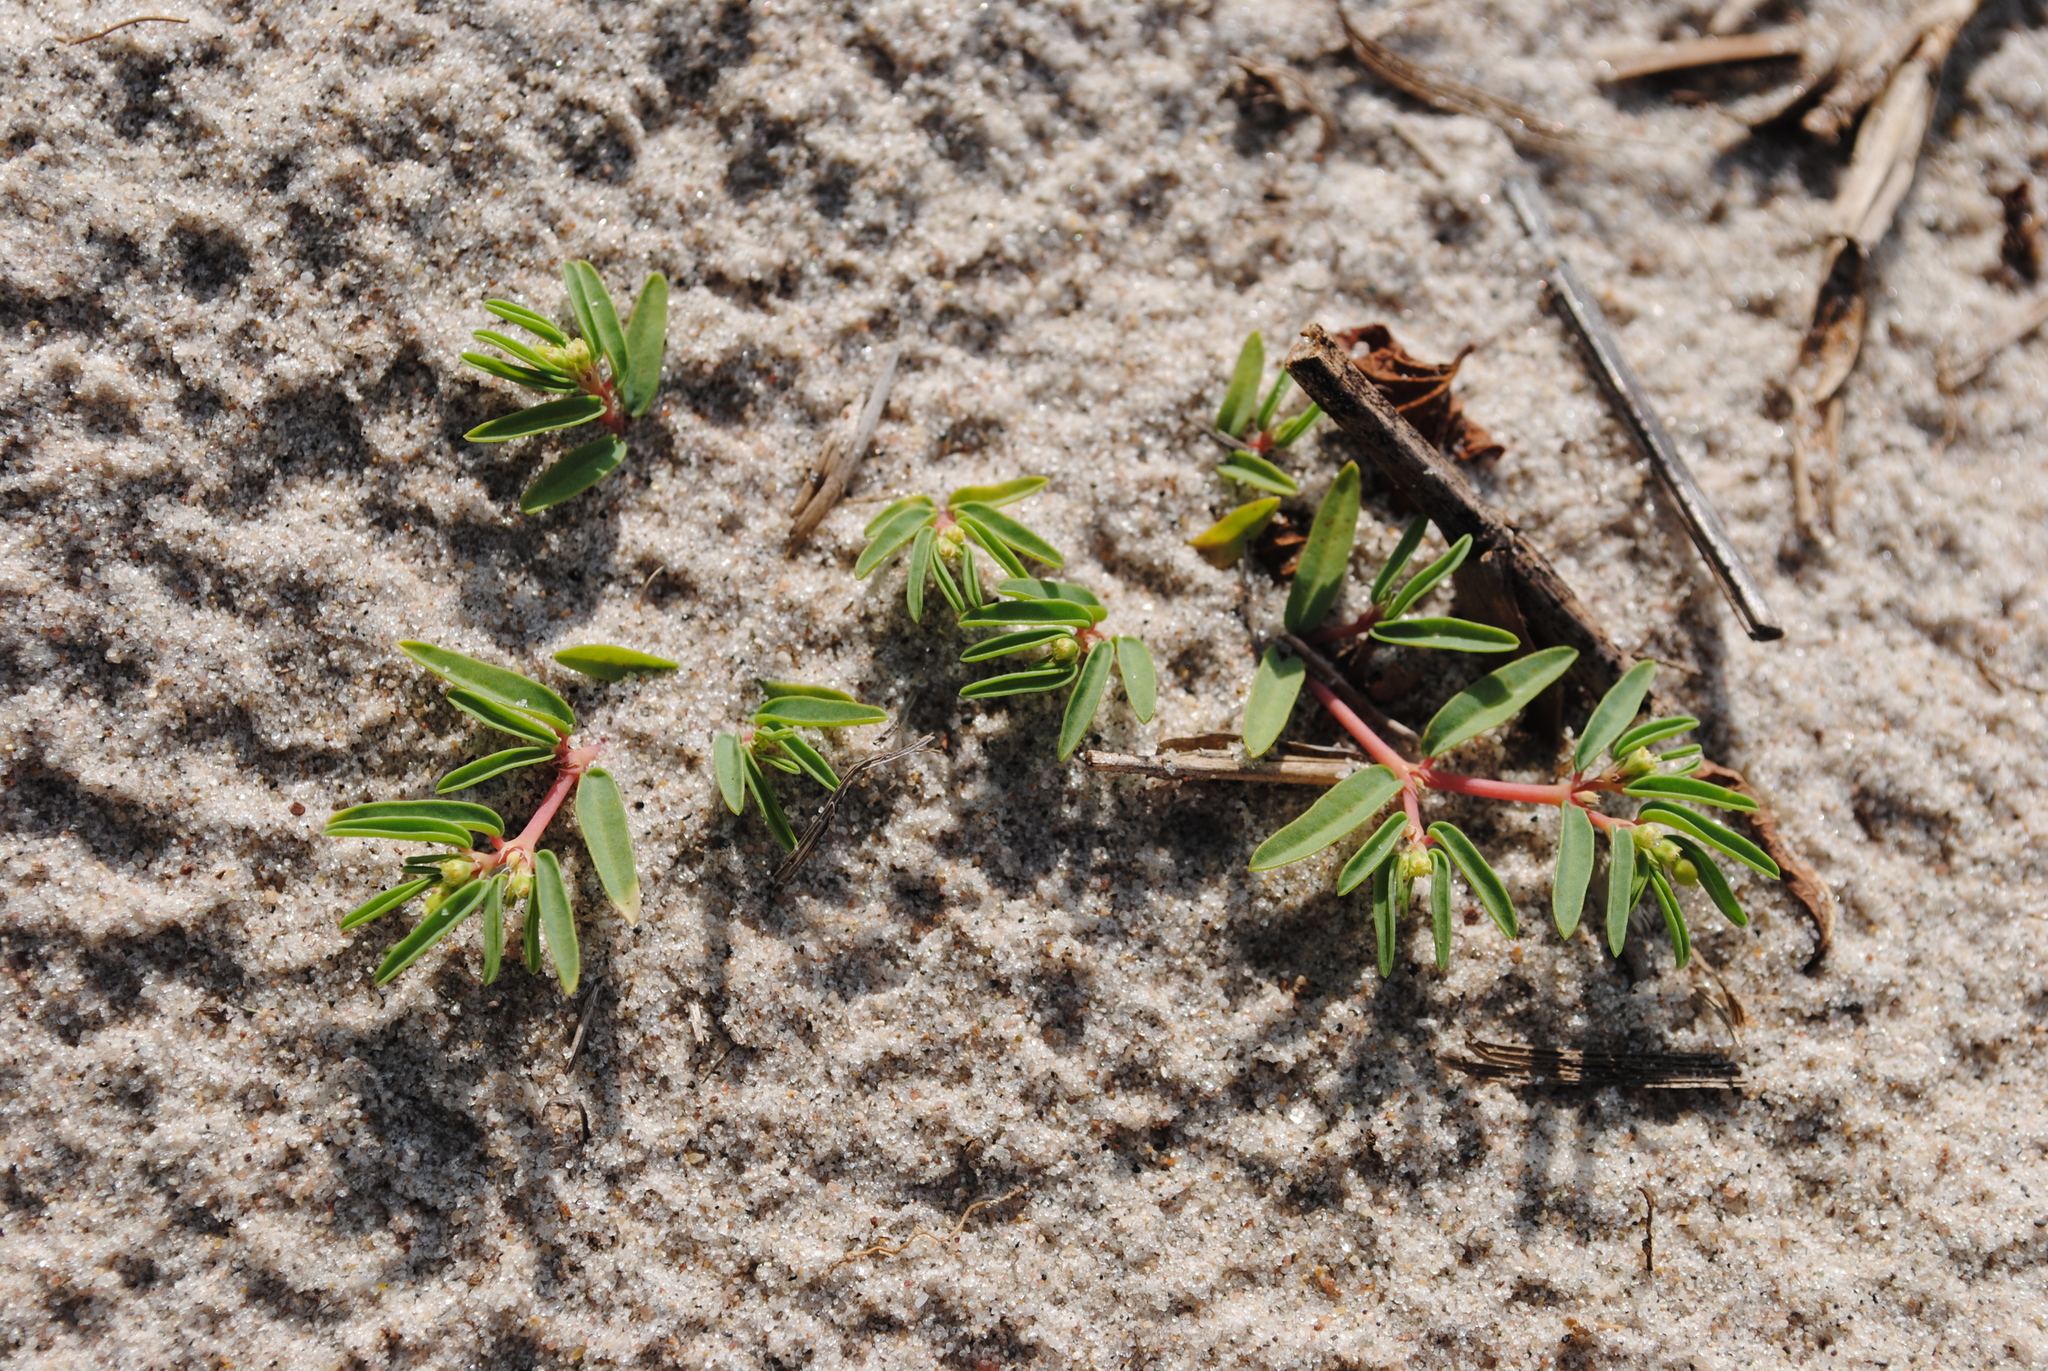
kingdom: Plantae
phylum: Tracheophyta
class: Magnoliopsida
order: Malpighiales
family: Euphorbiaceae
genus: Euphorbia
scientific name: Euphorbia polygonifolia
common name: Knotweed spurge
